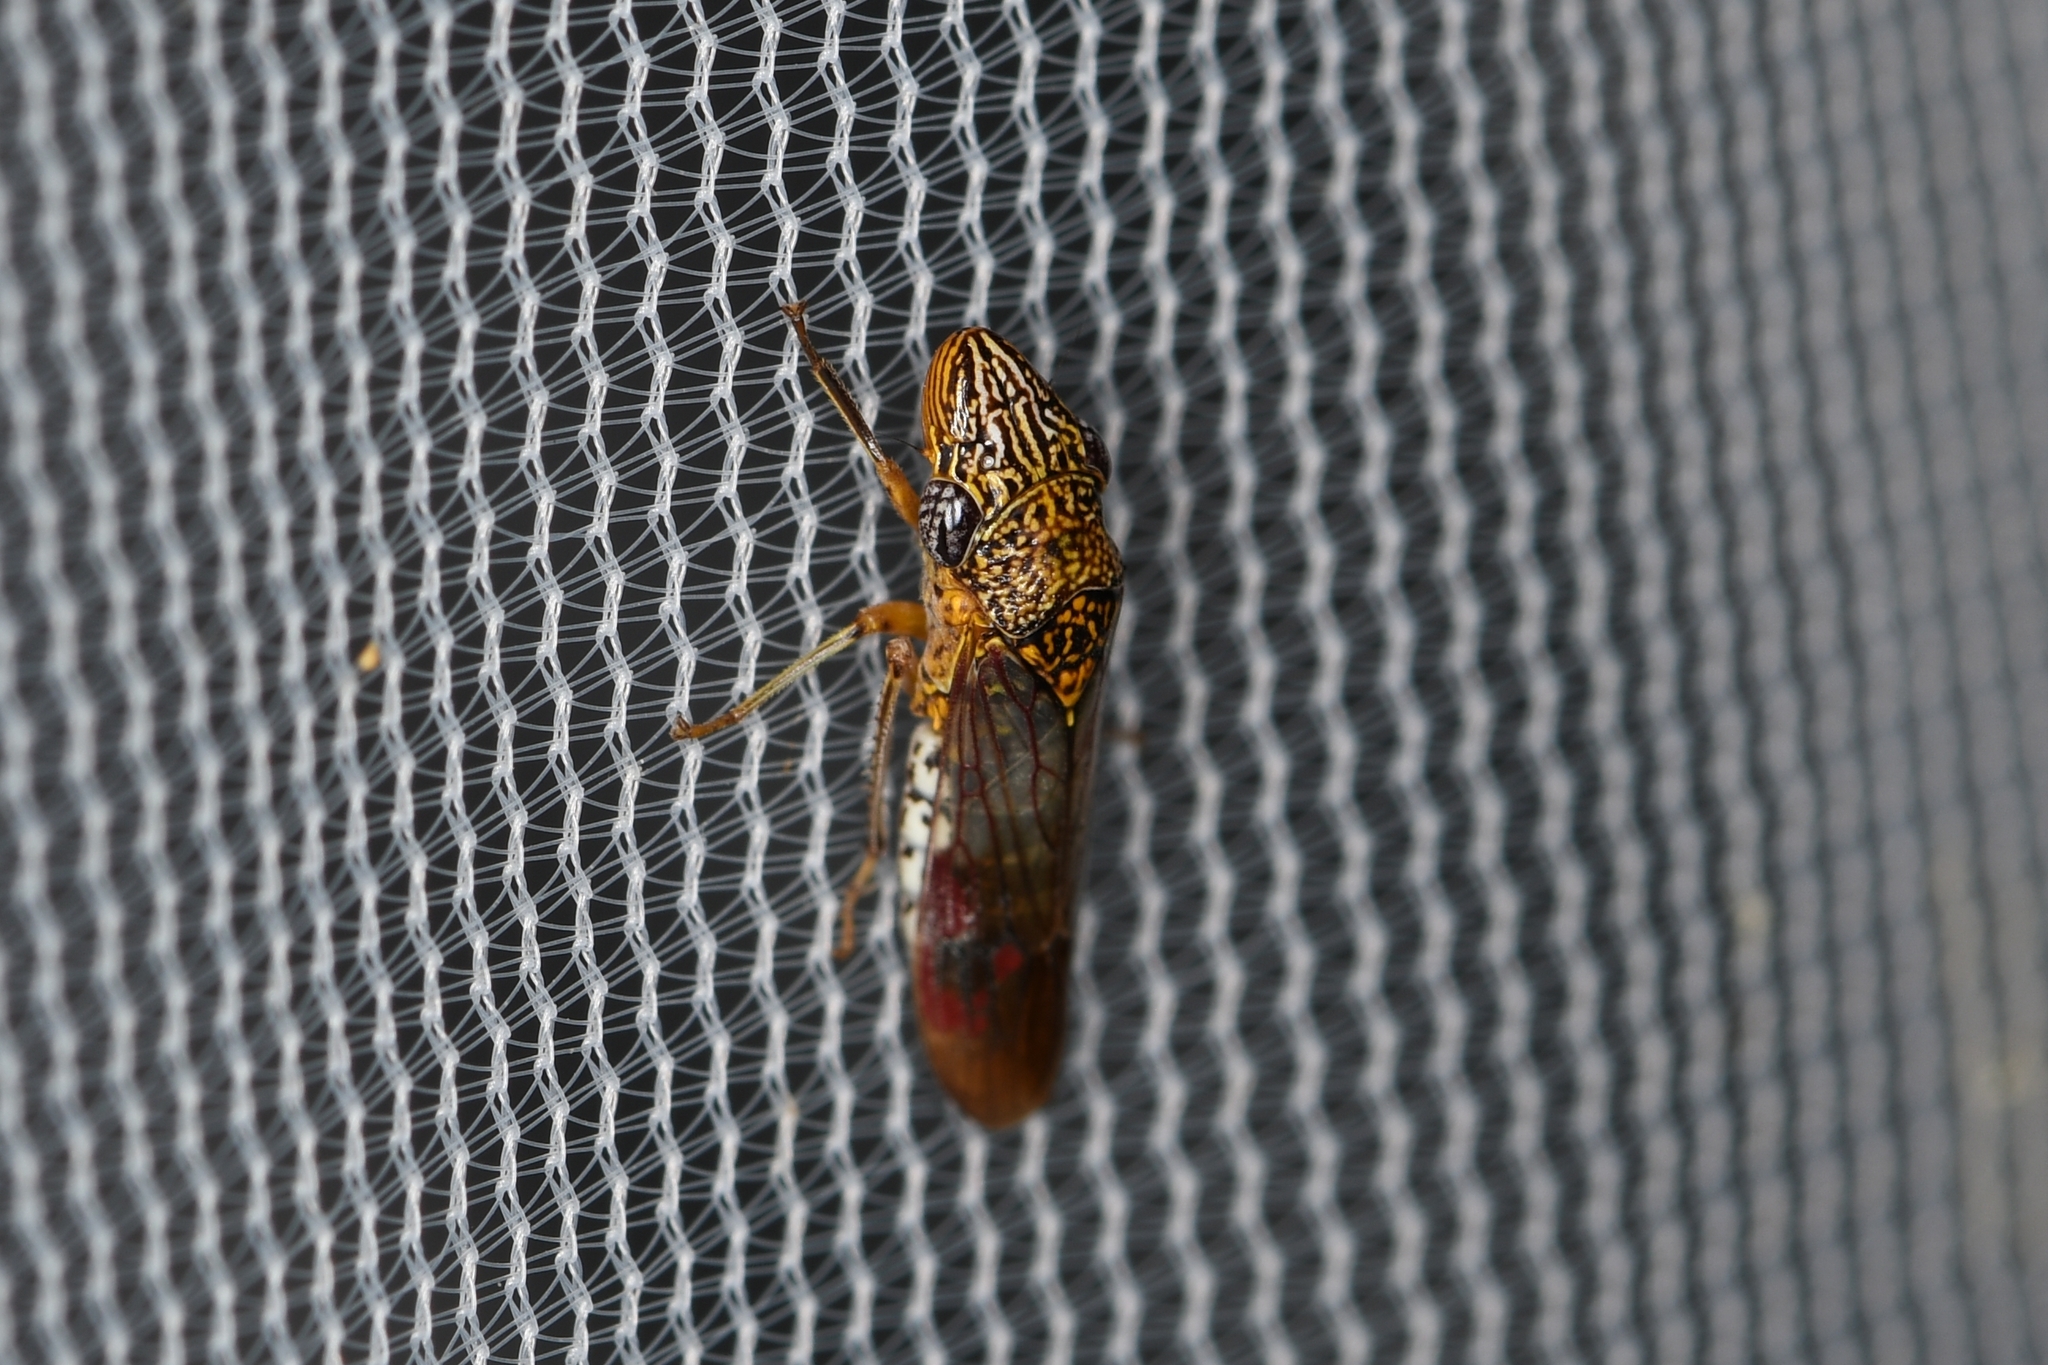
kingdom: Animalia
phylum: Arthropoda
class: Insecta
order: Hemiptera
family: Cicadellidae
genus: Homalodisca
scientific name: Homalodisca liturata
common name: Lacertate sharpshooter
